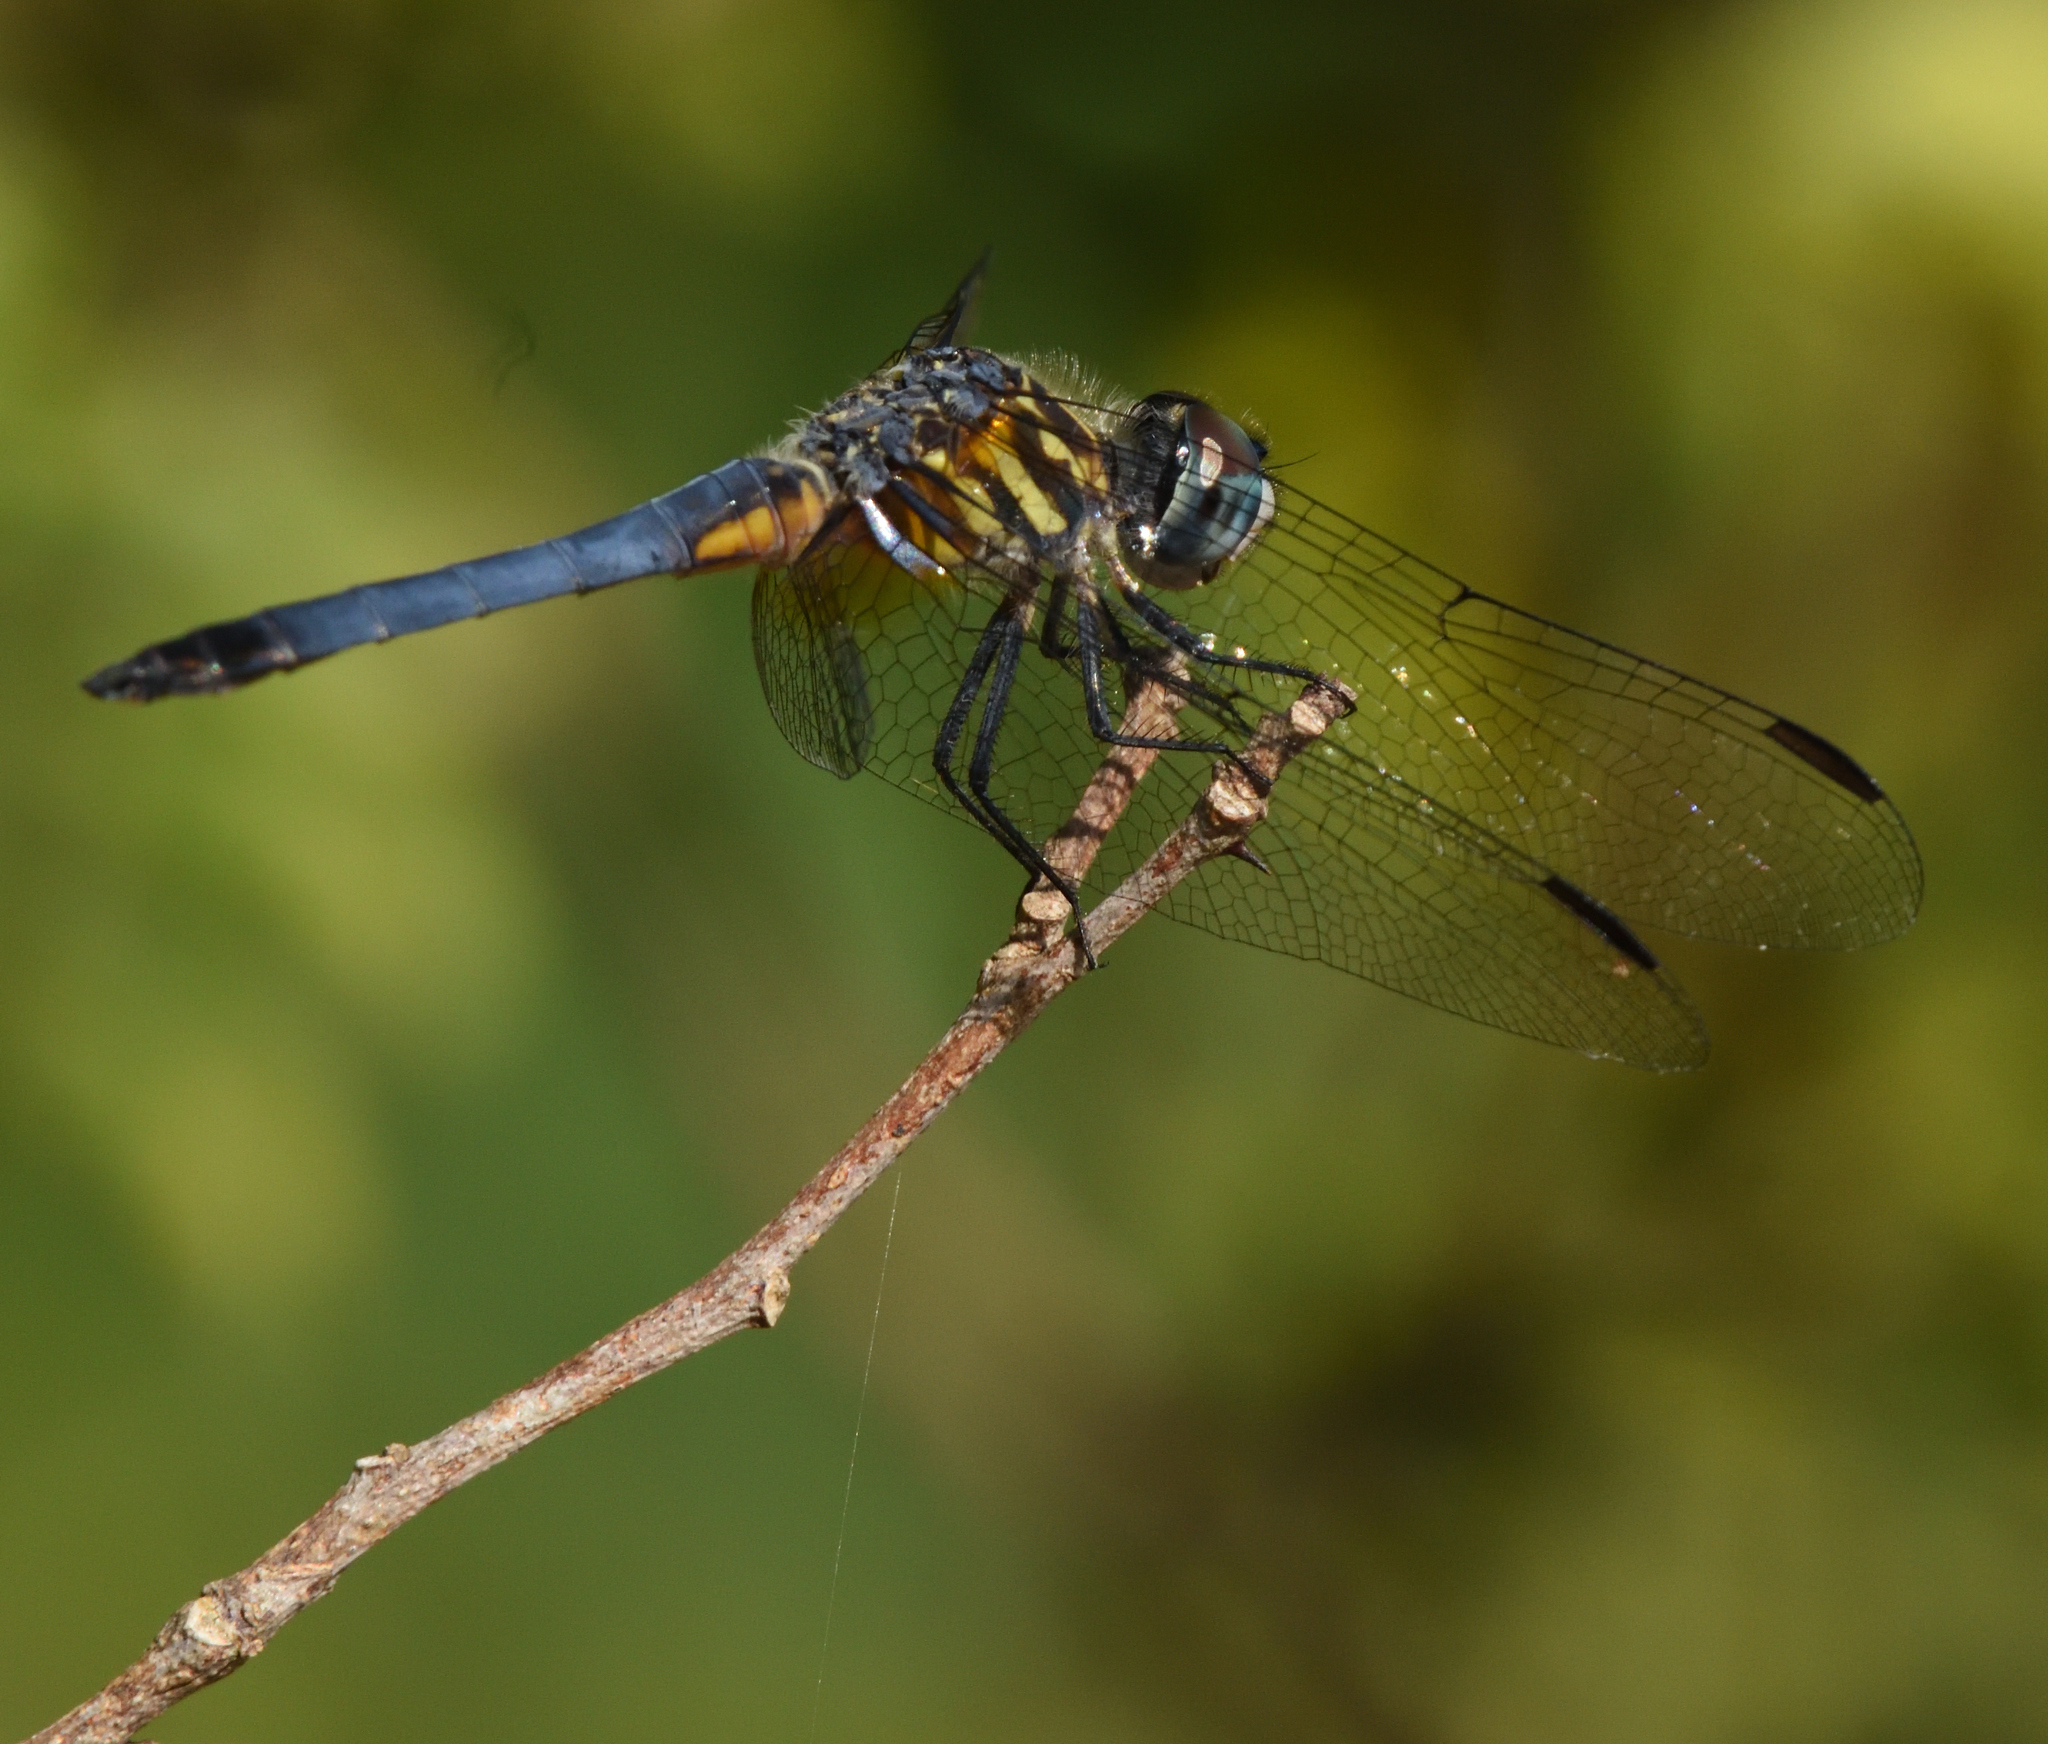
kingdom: Animalia
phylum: Arthropoda
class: Insecta
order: Odonata
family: Libellulidae
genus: Pachydiplax
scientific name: Pachydiplax longipennis
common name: Blue dasher
